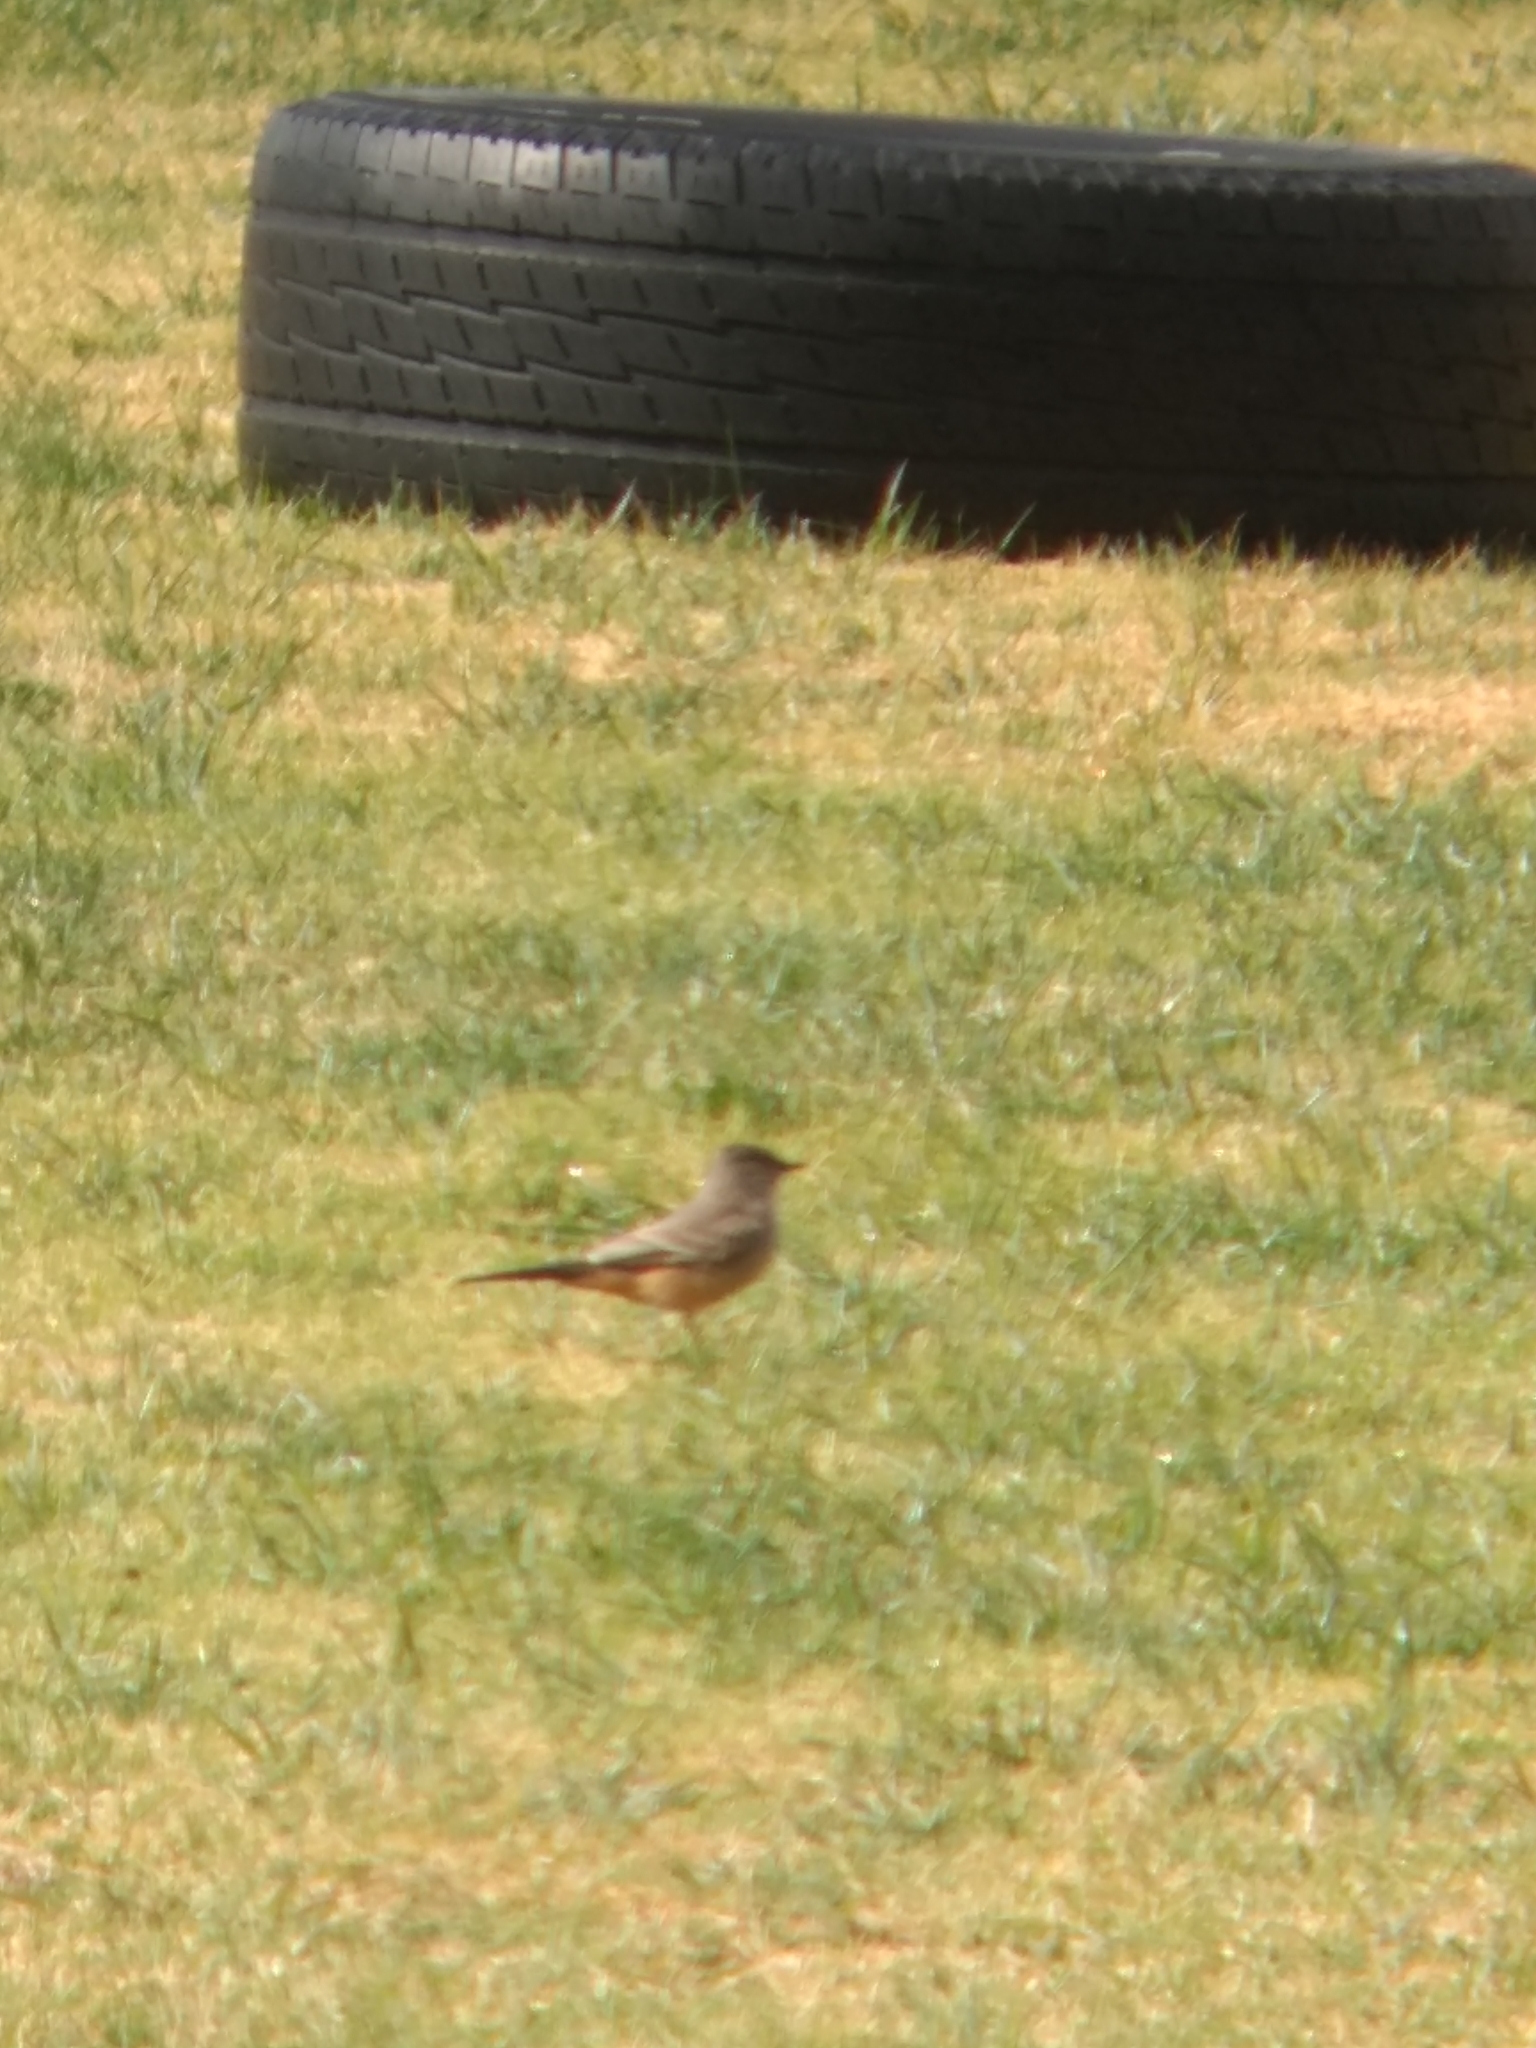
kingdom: Animalia
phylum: Chordata
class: Aves
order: Passeriformes
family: Tyrannidae
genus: Sayornis
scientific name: Sayornis saya
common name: Say's phoebe
